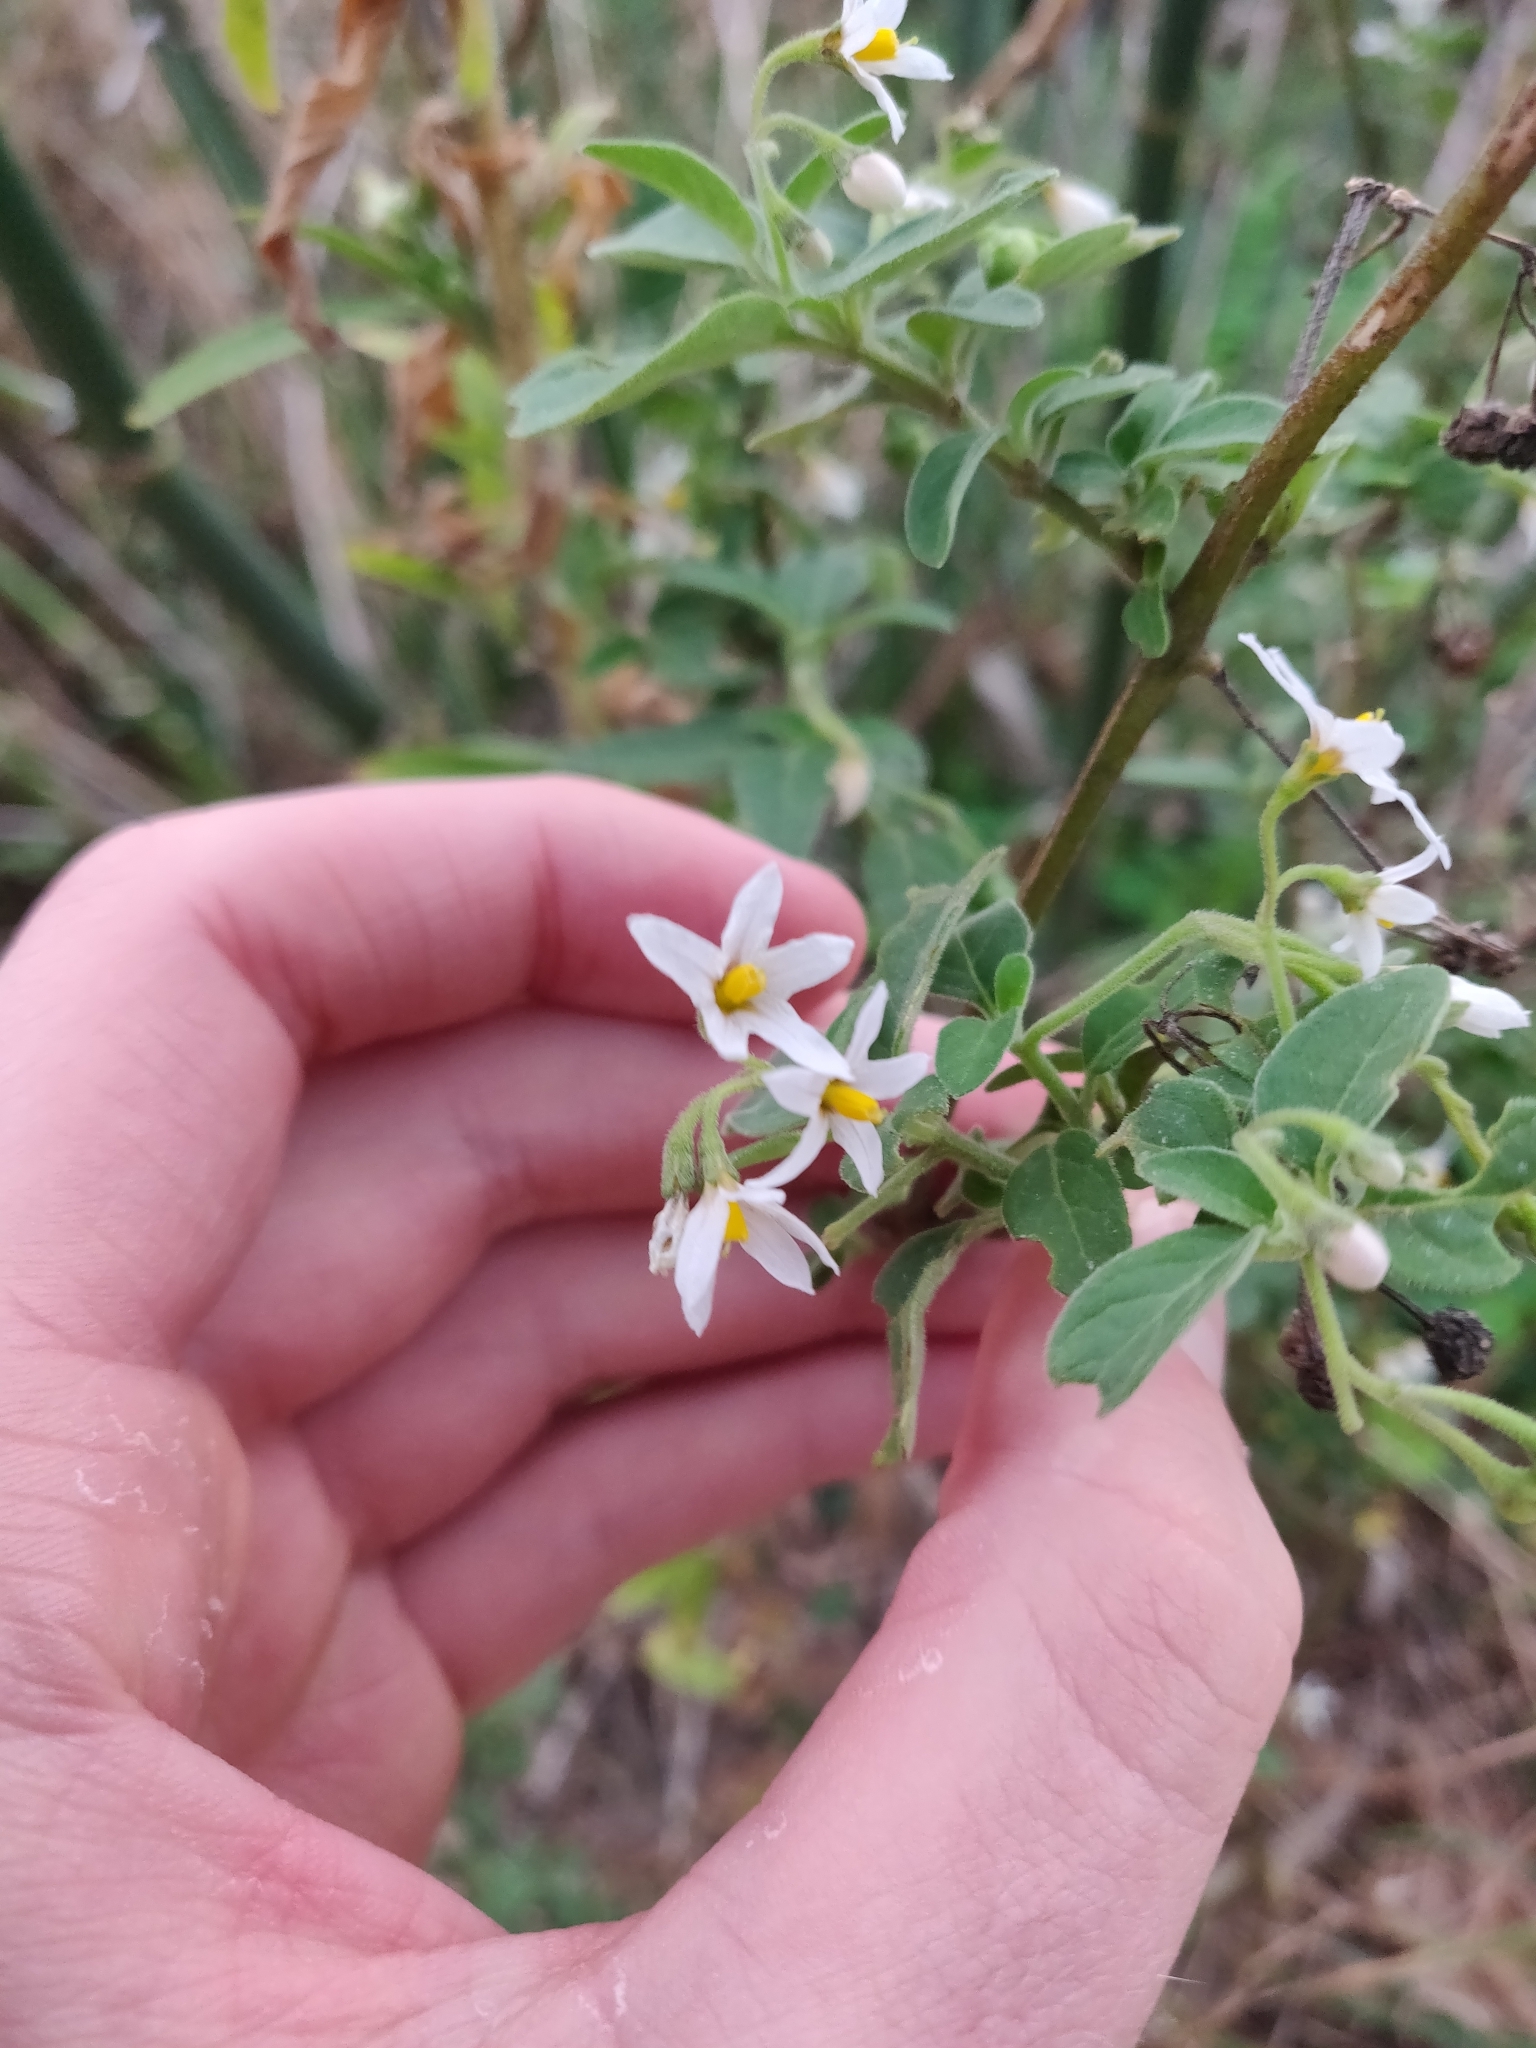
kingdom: Plantae
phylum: Tracheophyta
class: Magnoliopsida
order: Solanales
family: Solanaceae
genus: Solanum
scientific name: Solanum chenopodioides
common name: Tall nightshade
